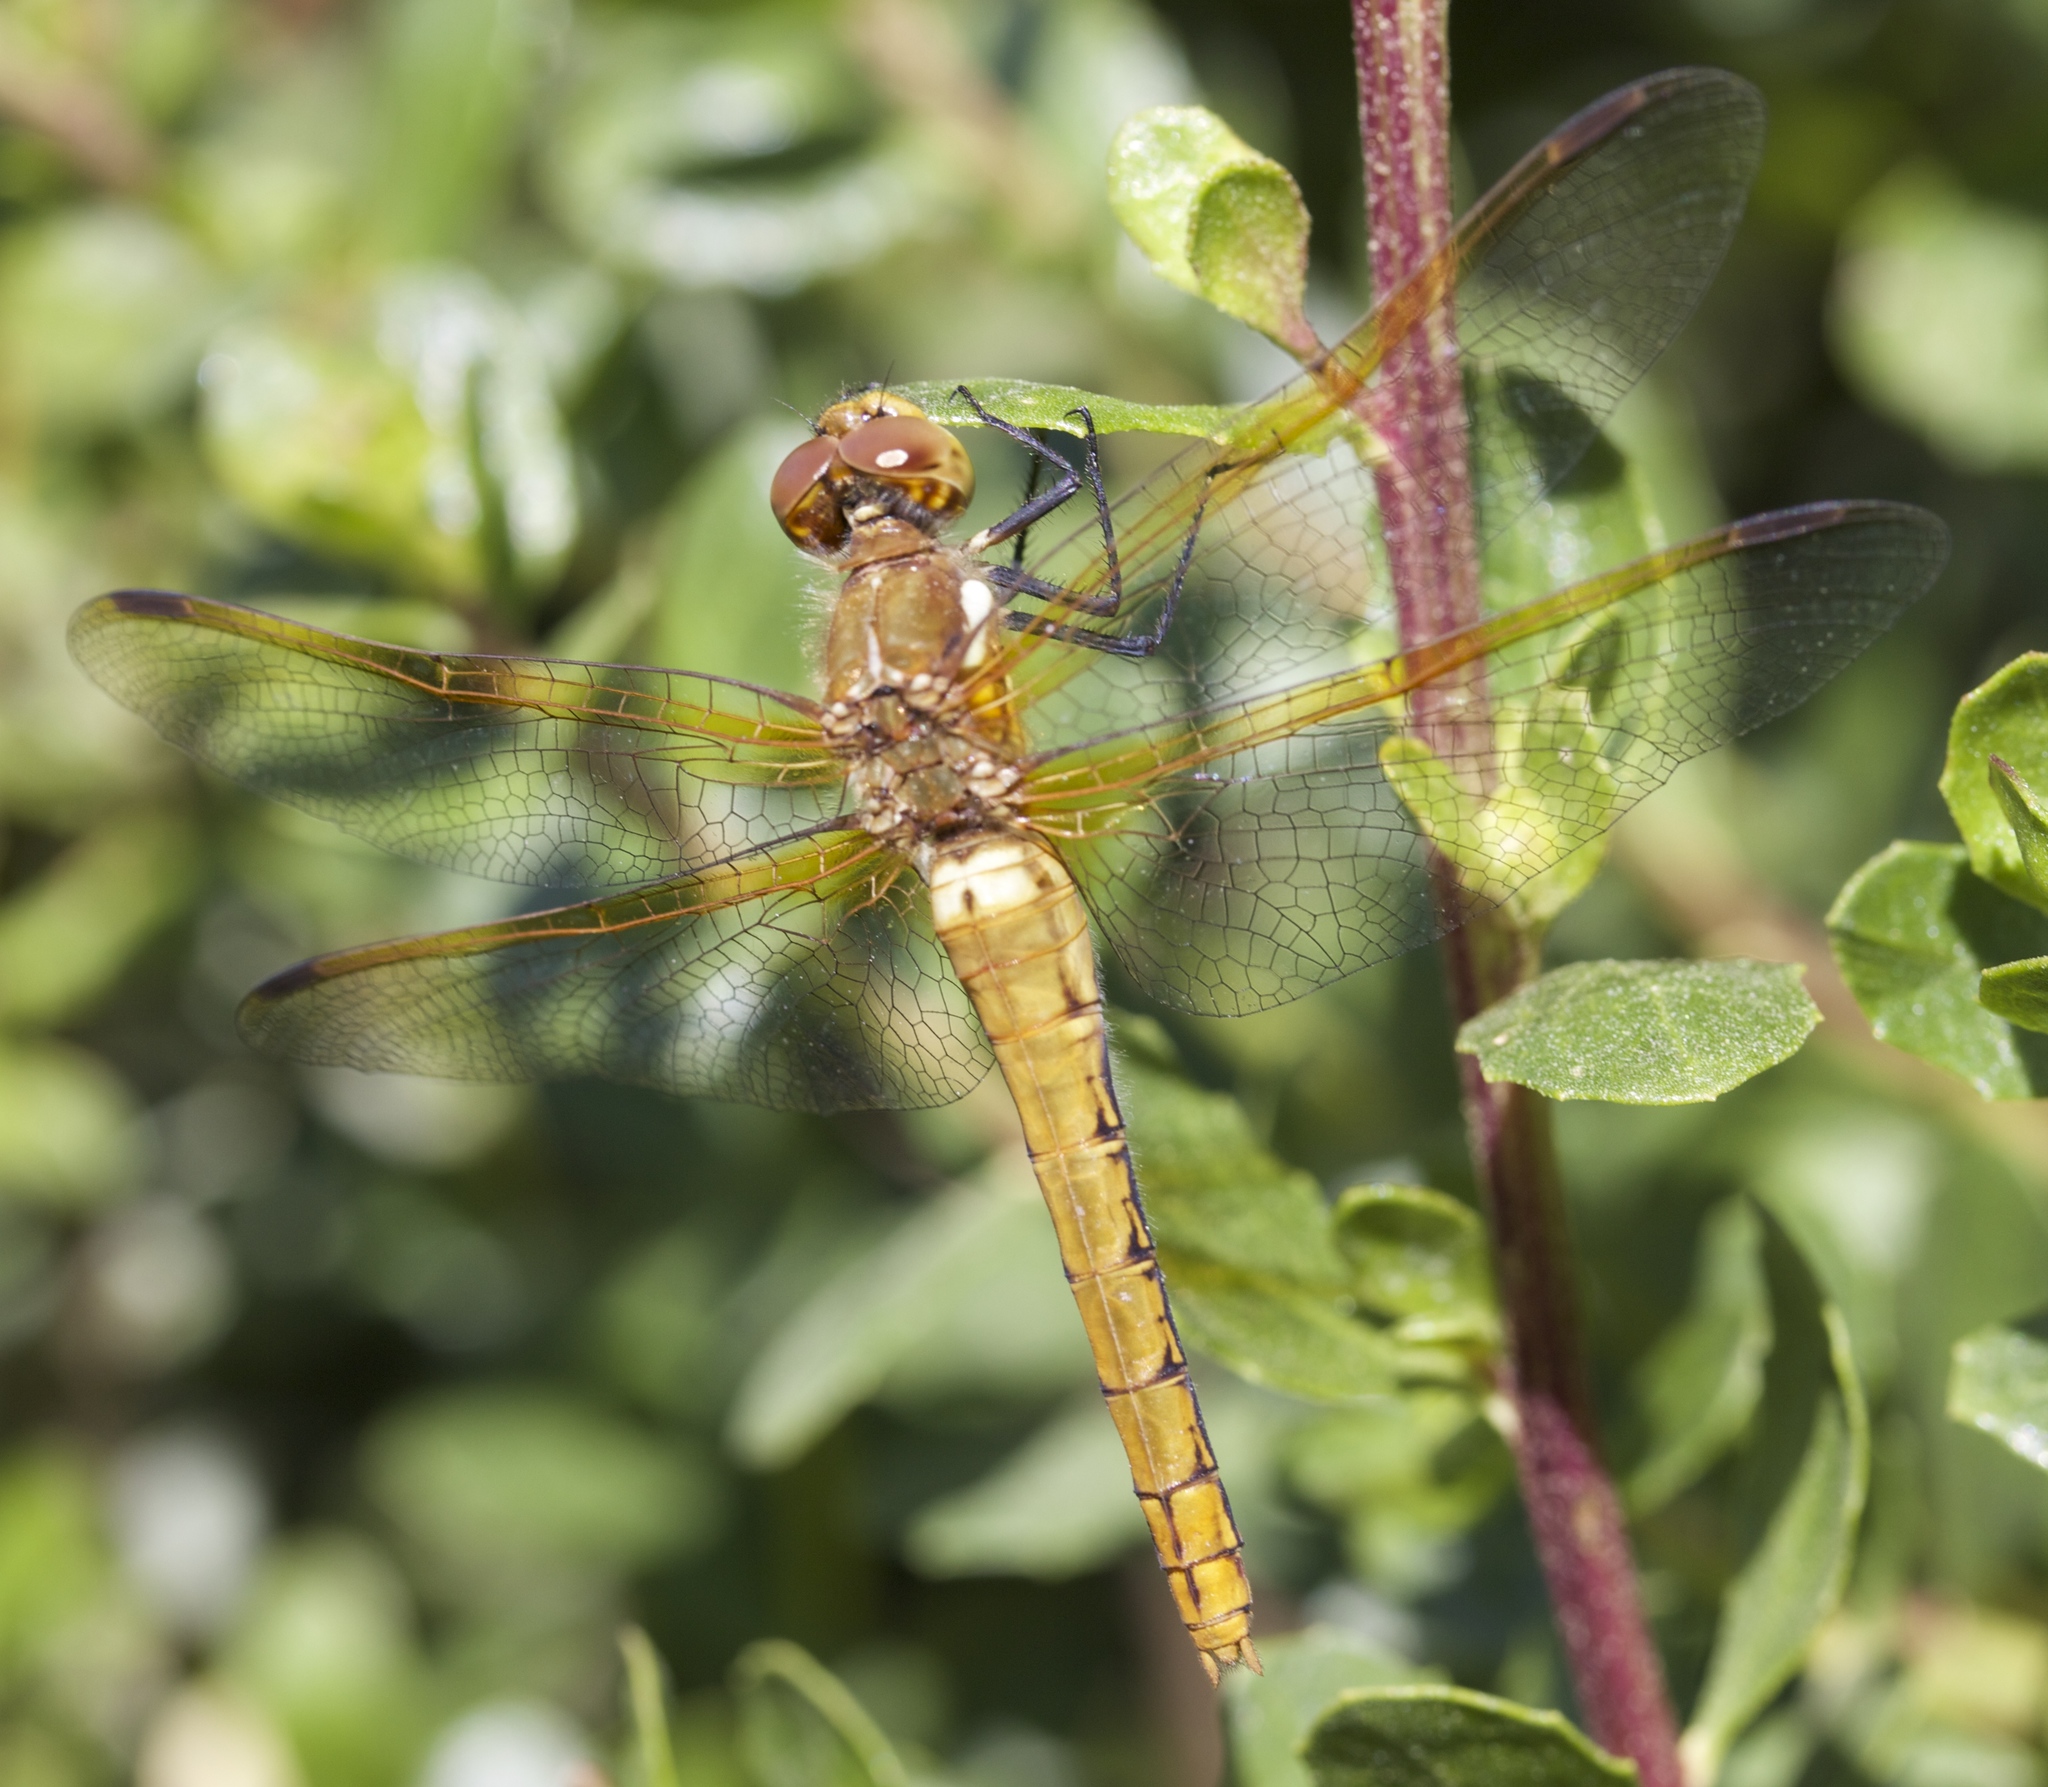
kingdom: Animalia
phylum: Arthropoda
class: Insecta
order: Odonata
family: Libellulidae
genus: Sympetrum
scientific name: Sympetrum madidum
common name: Red-veined meadowhawk
